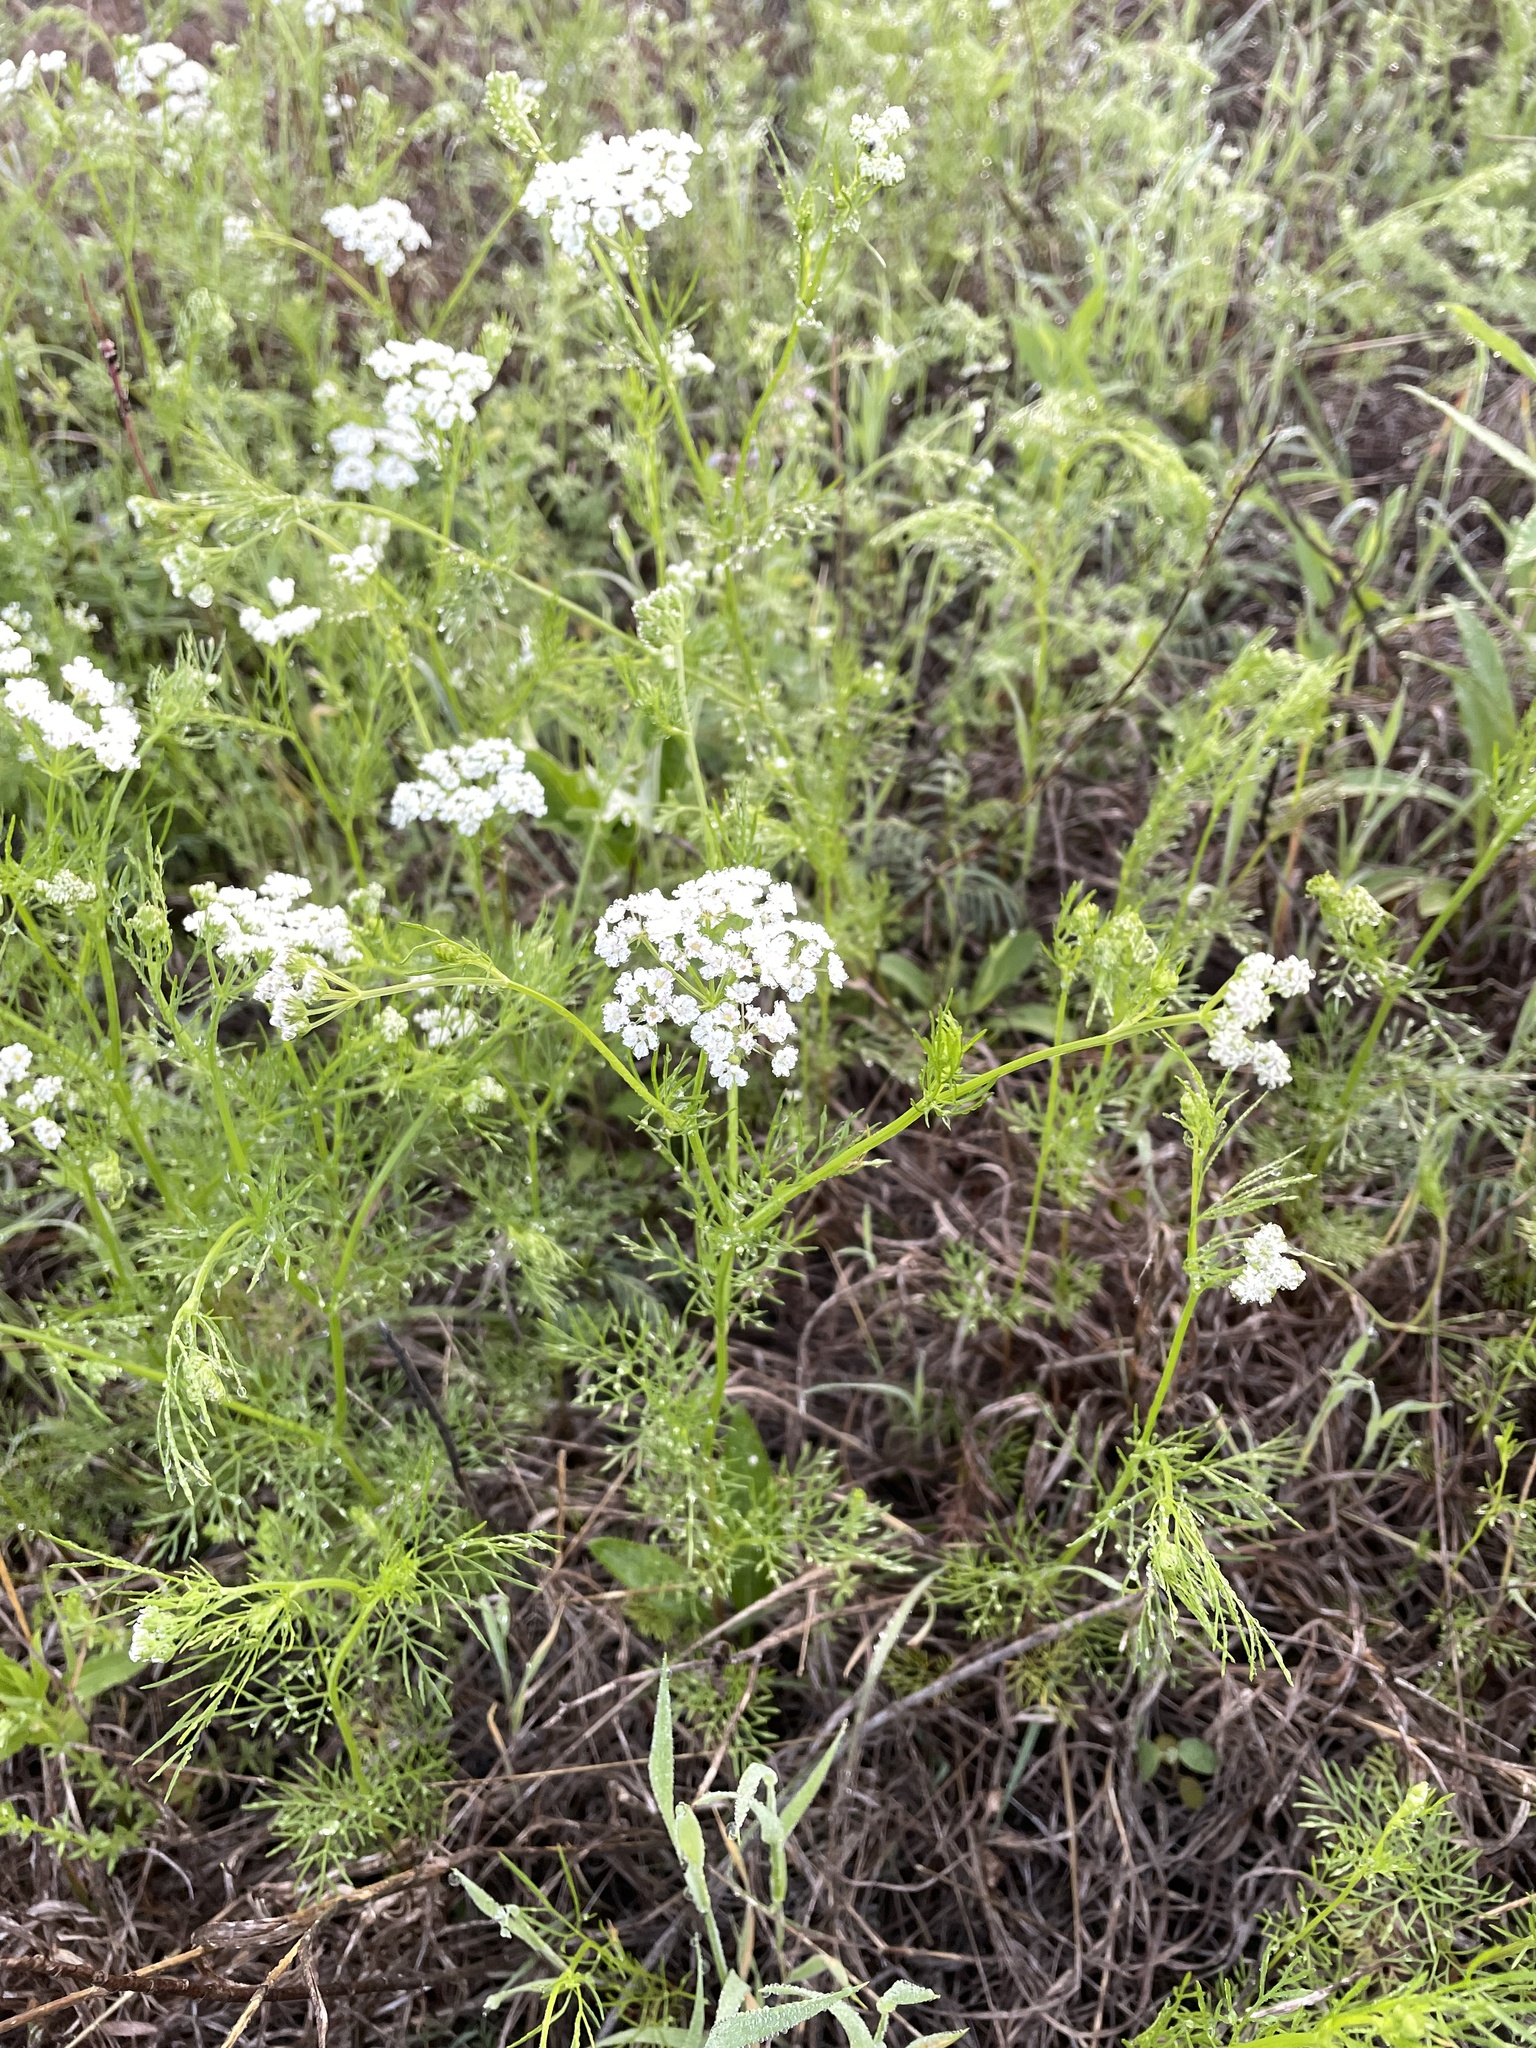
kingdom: Plantae
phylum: Tracheophyta
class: Magnoliopsida
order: Apiales
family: Apiaceae
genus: Atrema
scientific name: Atrema americanum
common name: Prairie-bishop
